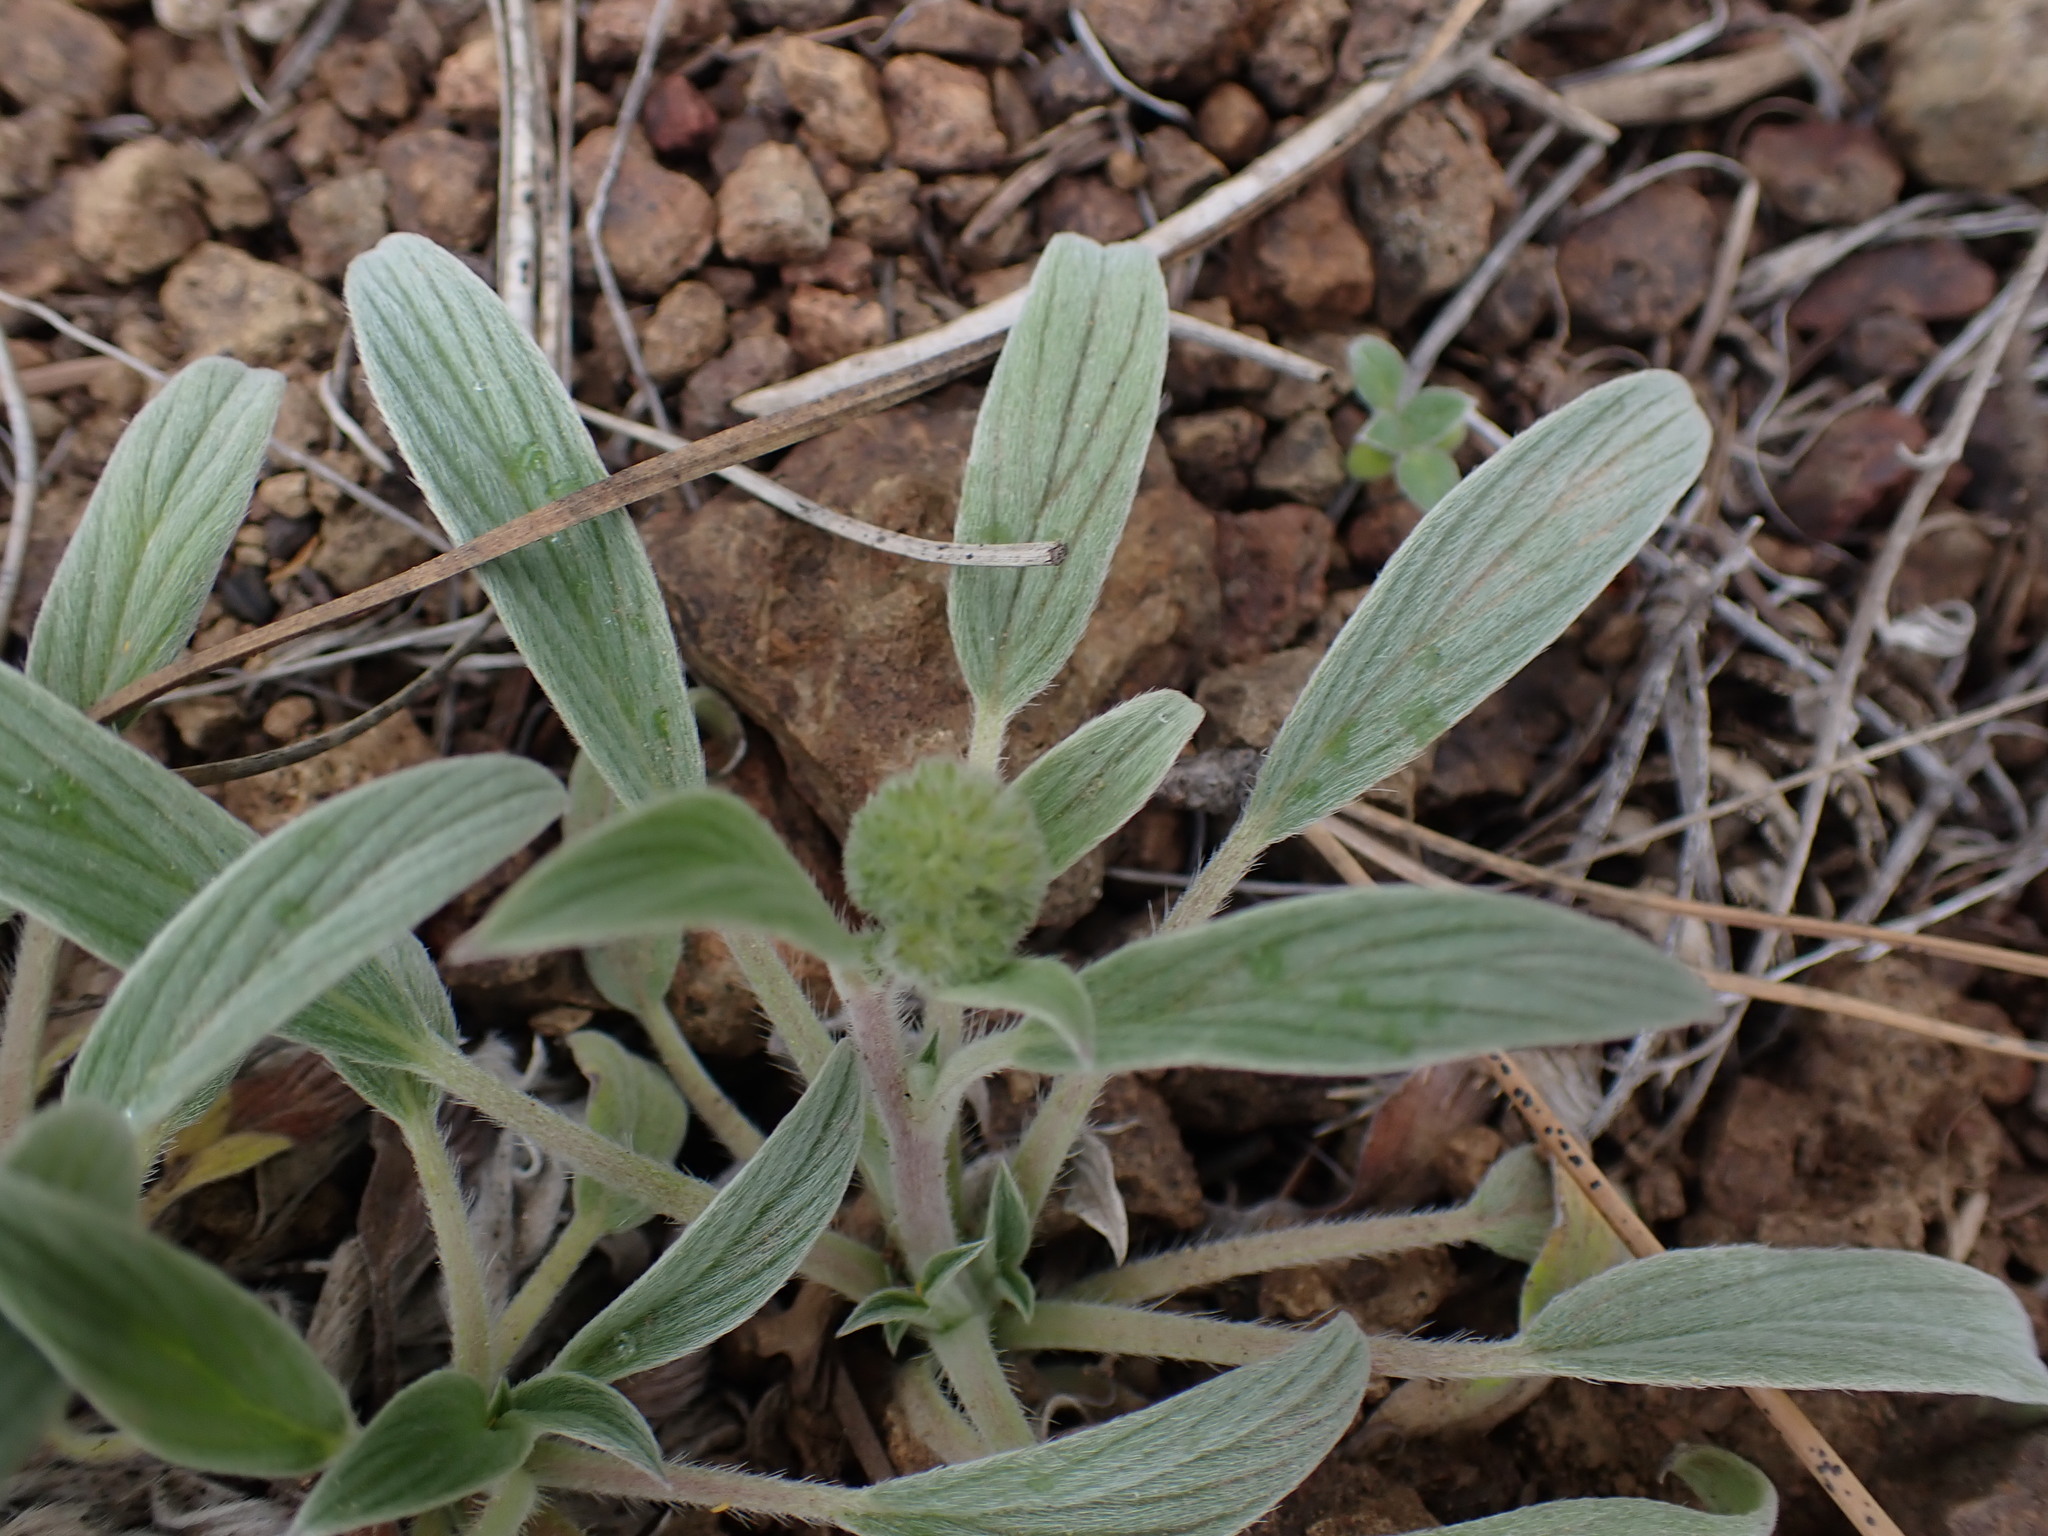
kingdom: Plantae
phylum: Tracheophyta
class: Magnoliopsida
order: Boraginales
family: Hydrophyllaceae
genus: Phacelia
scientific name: Phacelia hastata
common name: Silver-leaved phacelia
